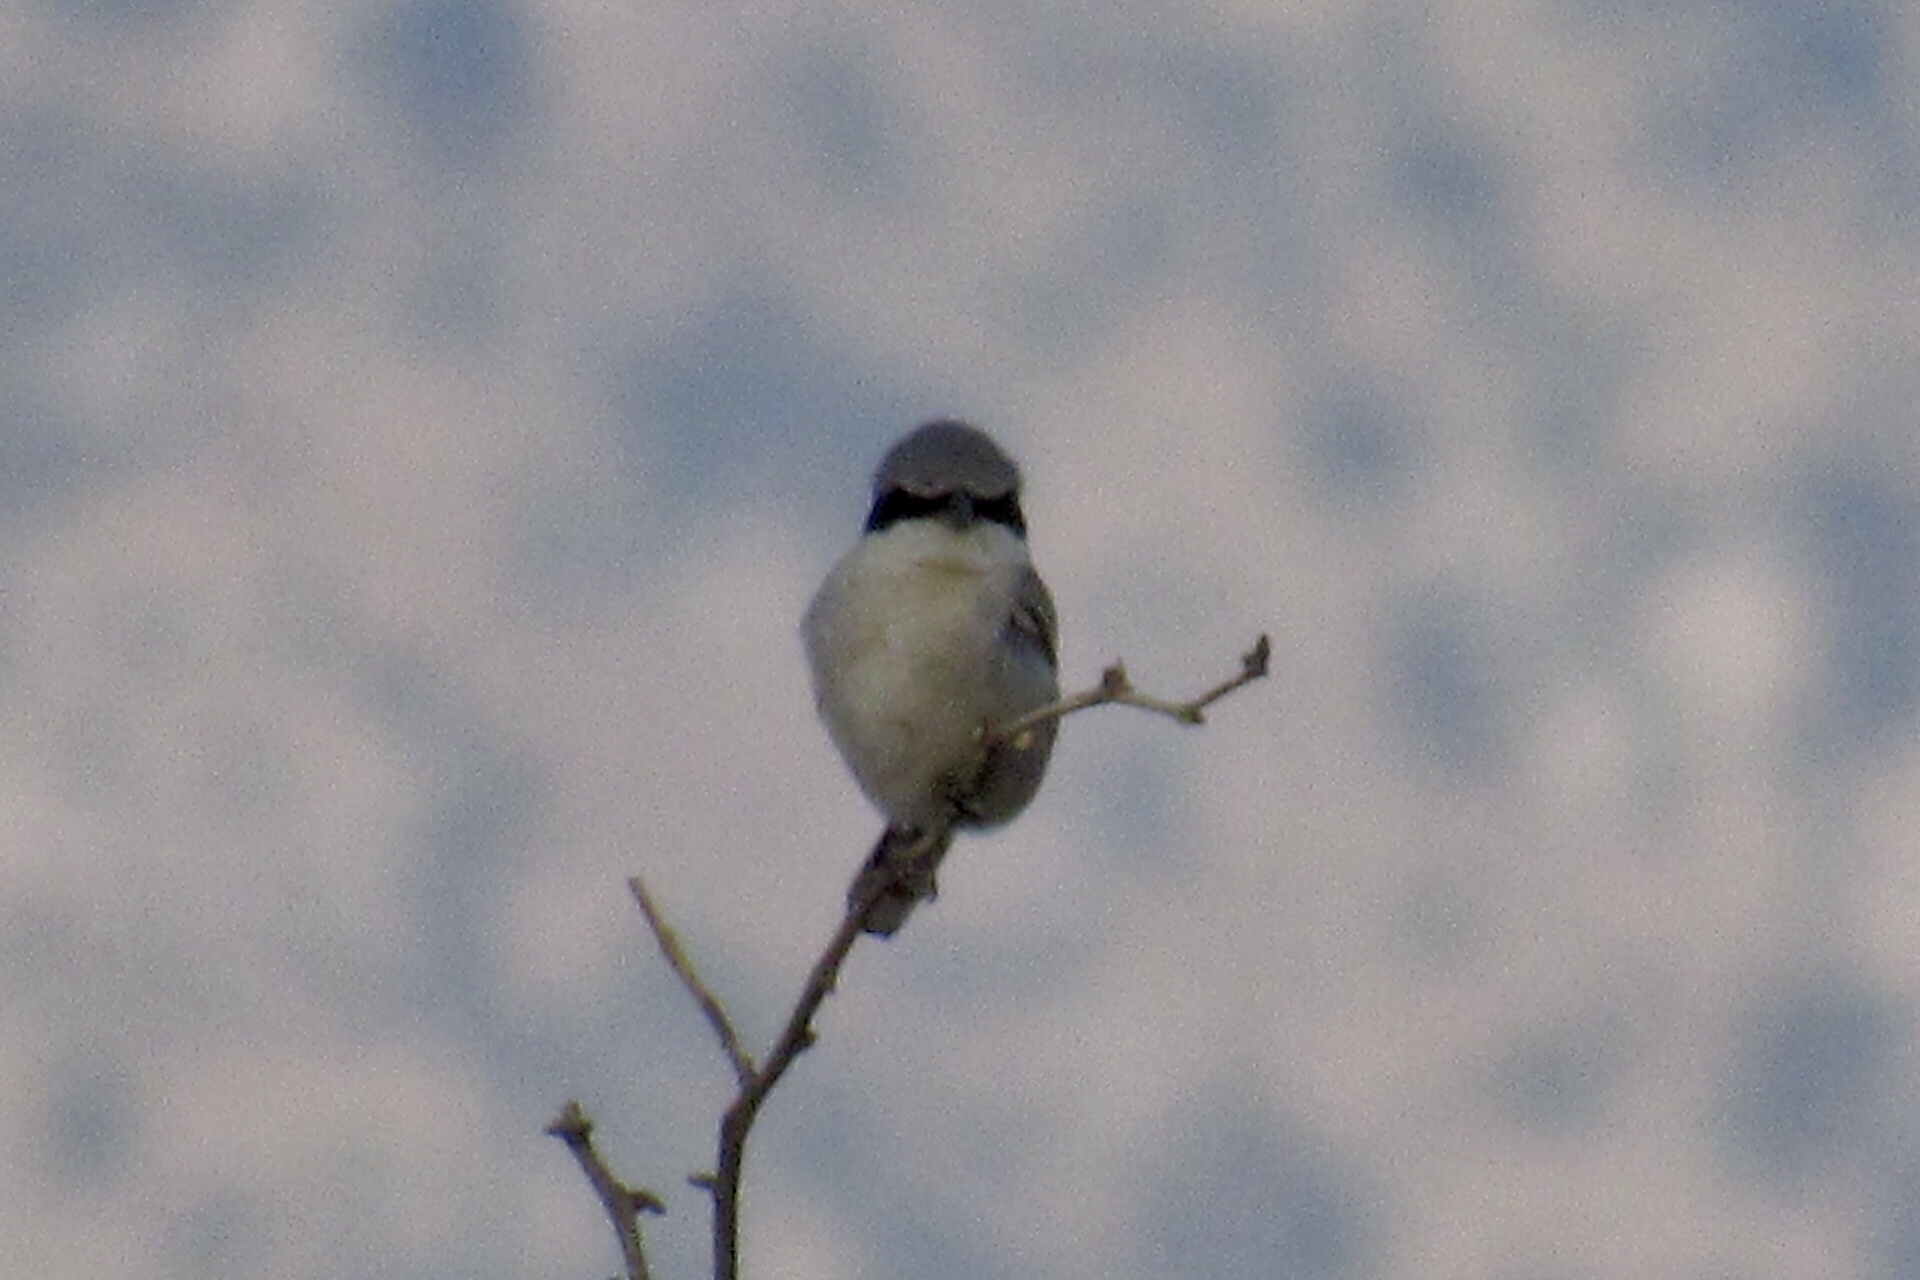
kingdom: Animalia
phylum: Chordata
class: Aves
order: Passeriformes
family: Laniidae
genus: Lanius
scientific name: Lanius ludovicianus
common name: Loggerhead shrike
